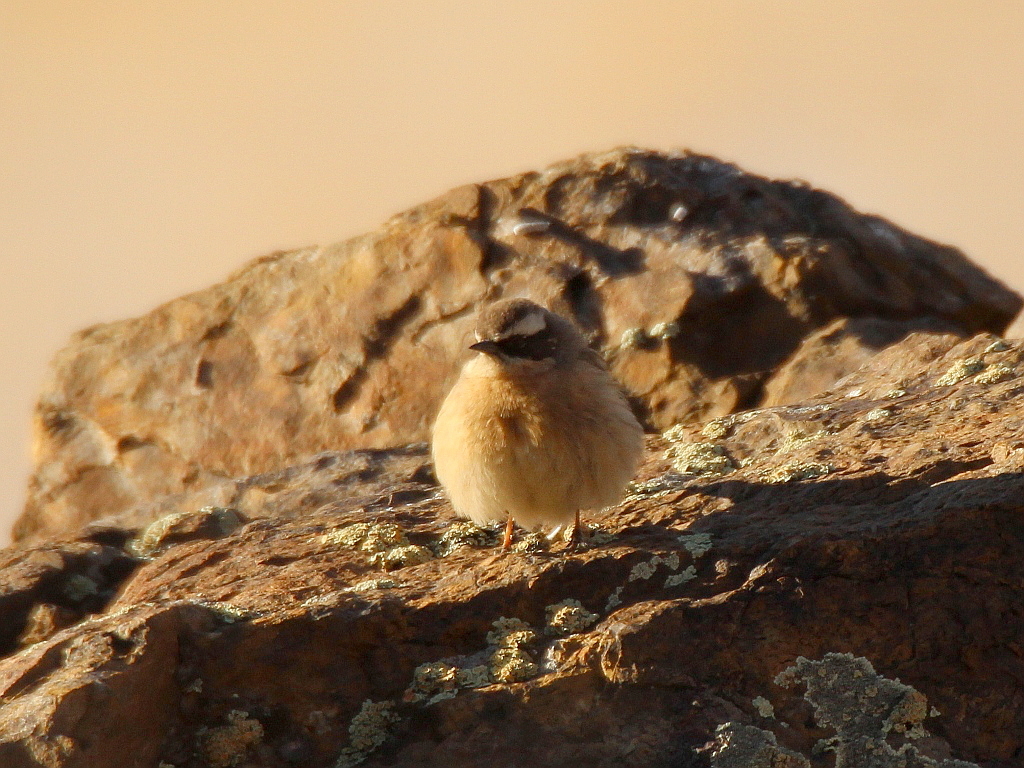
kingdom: Animalia
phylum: Chordata
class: Aves
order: Passeriformes
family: Prunellidae
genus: Prunella
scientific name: Prunella fulvescens
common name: Brown accentor
